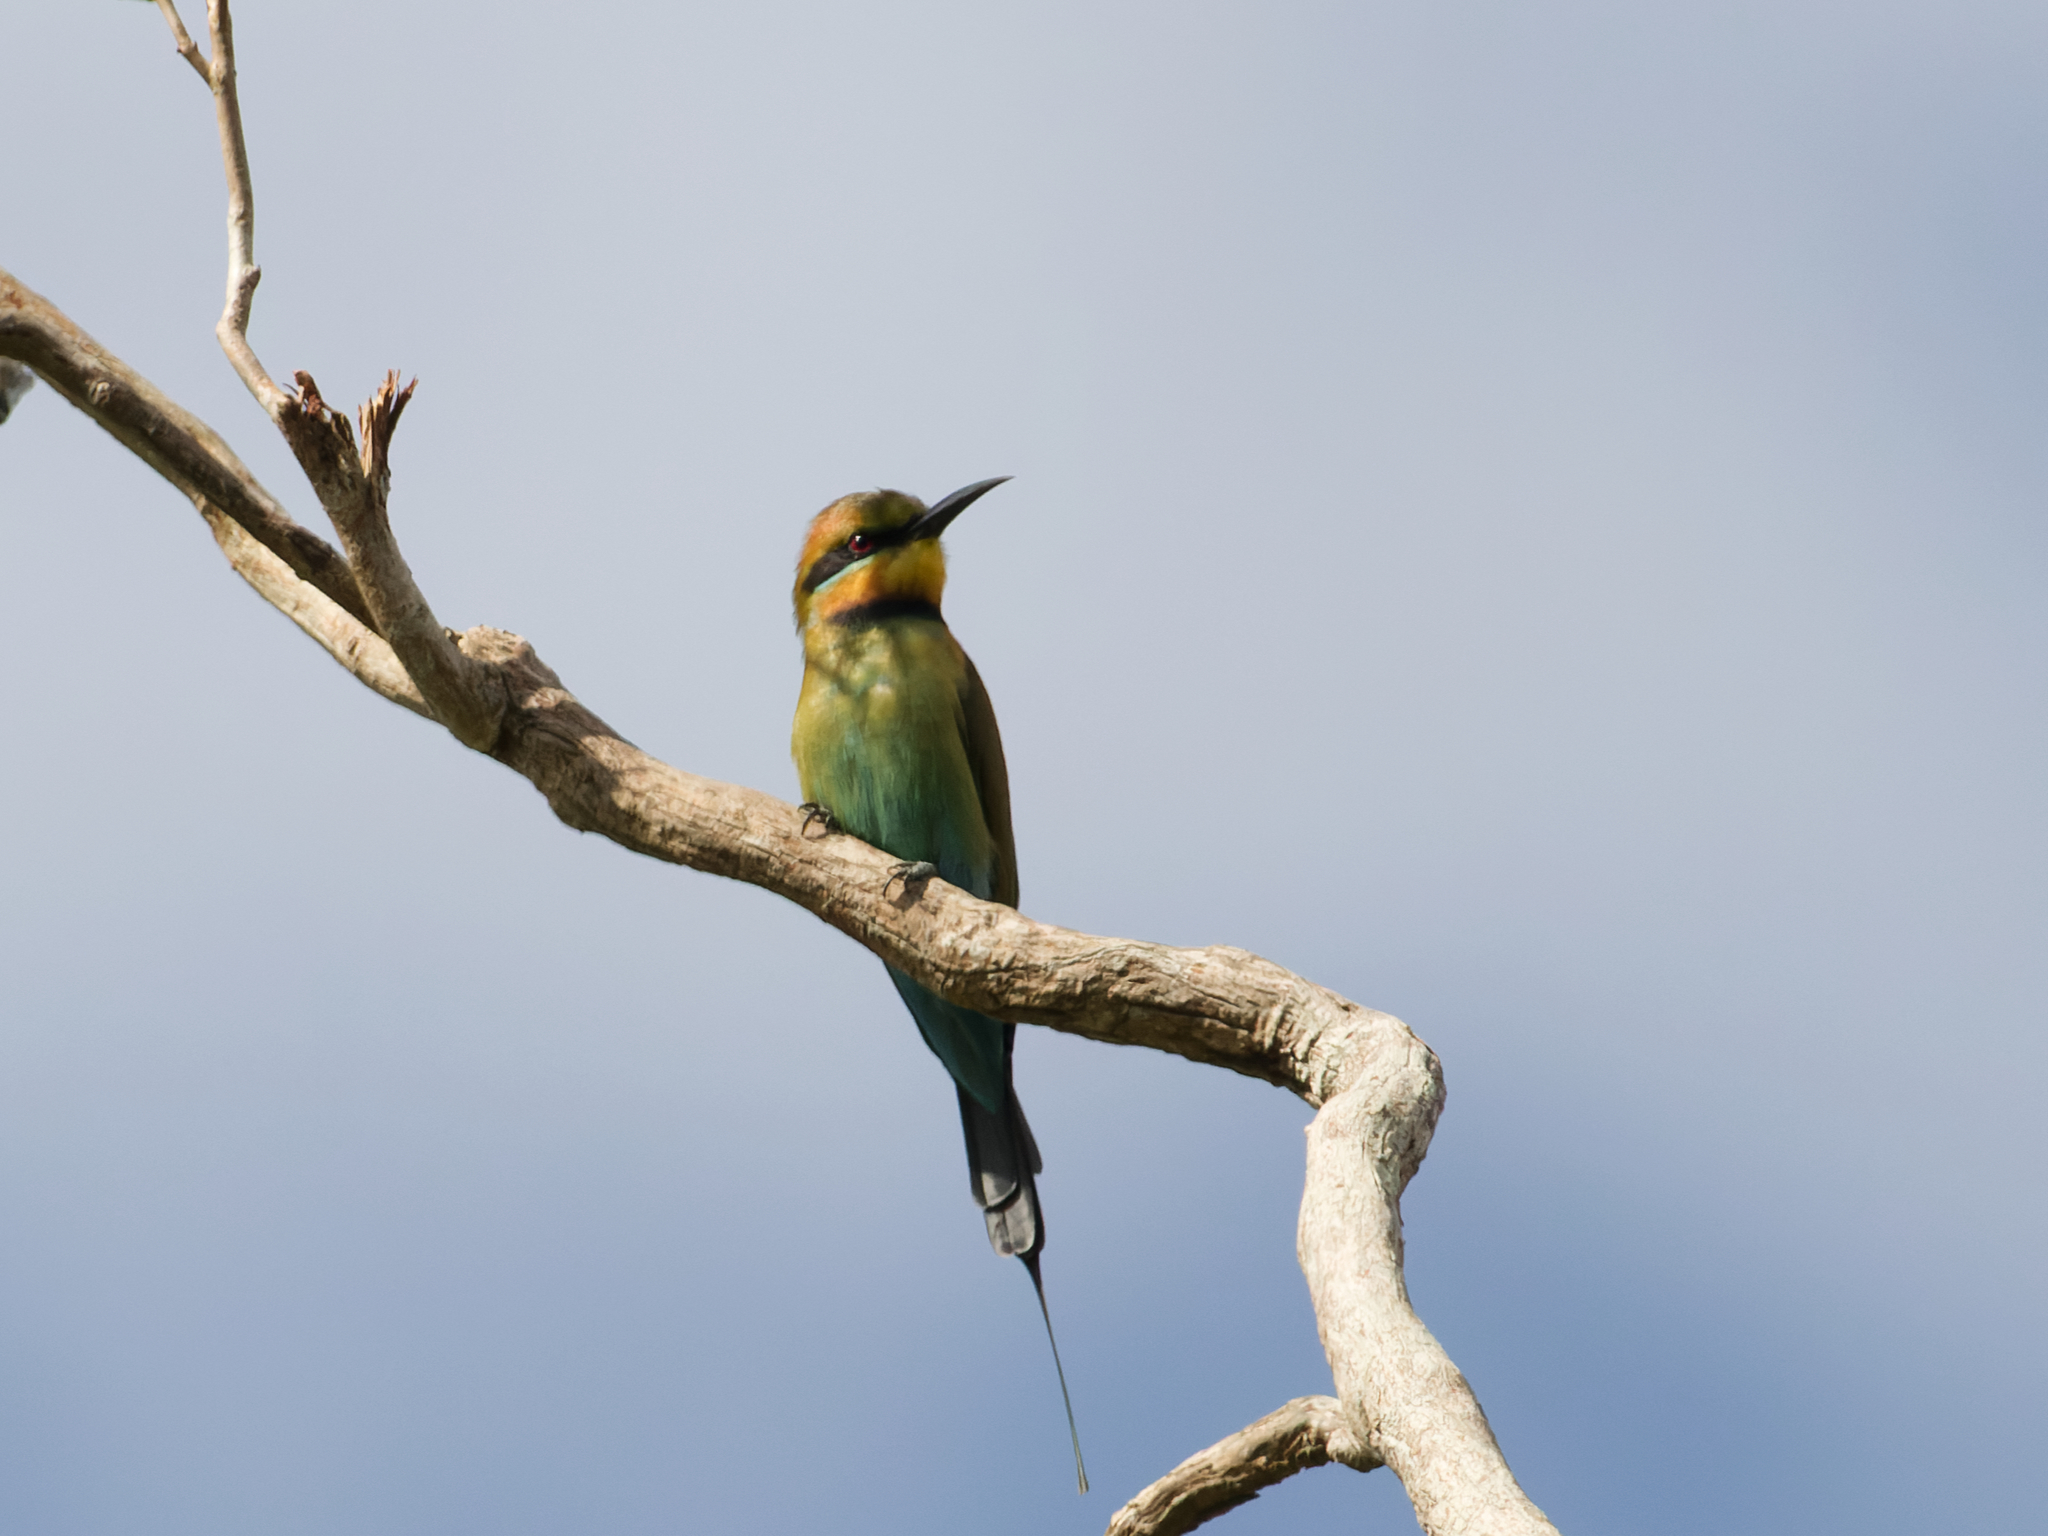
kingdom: Animalia
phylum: Chordata
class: Aves
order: Coraciiformes
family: Meropidae
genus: Merops
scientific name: Merops ornatus
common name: Rainbow bee-eater
